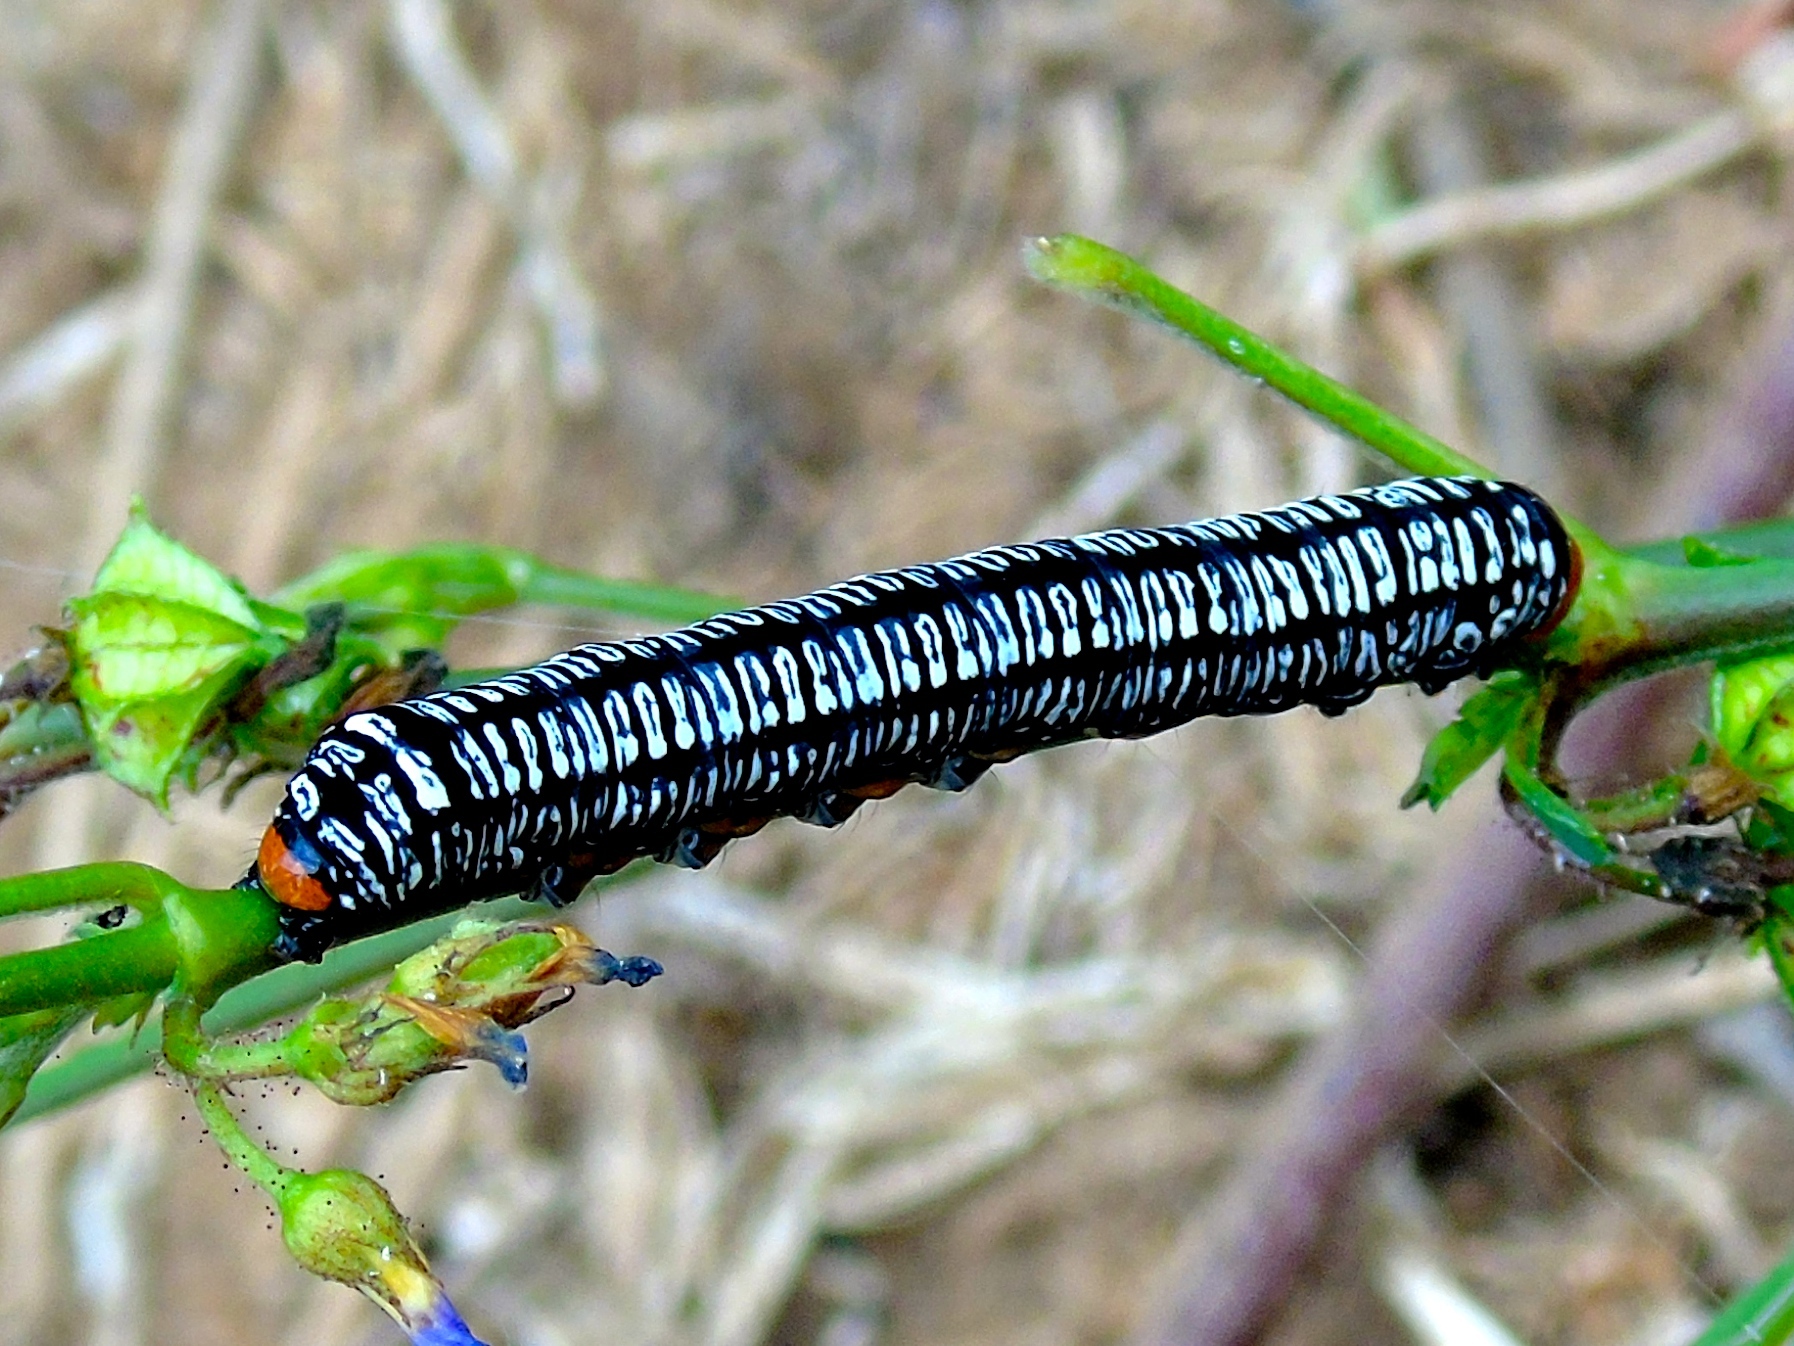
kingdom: Animalia
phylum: Arthropoda
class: Insecta
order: Lepidoptera
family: Erebidae
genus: Diphthera
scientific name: Diphthera festiva
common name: Hieroglyphic moth
